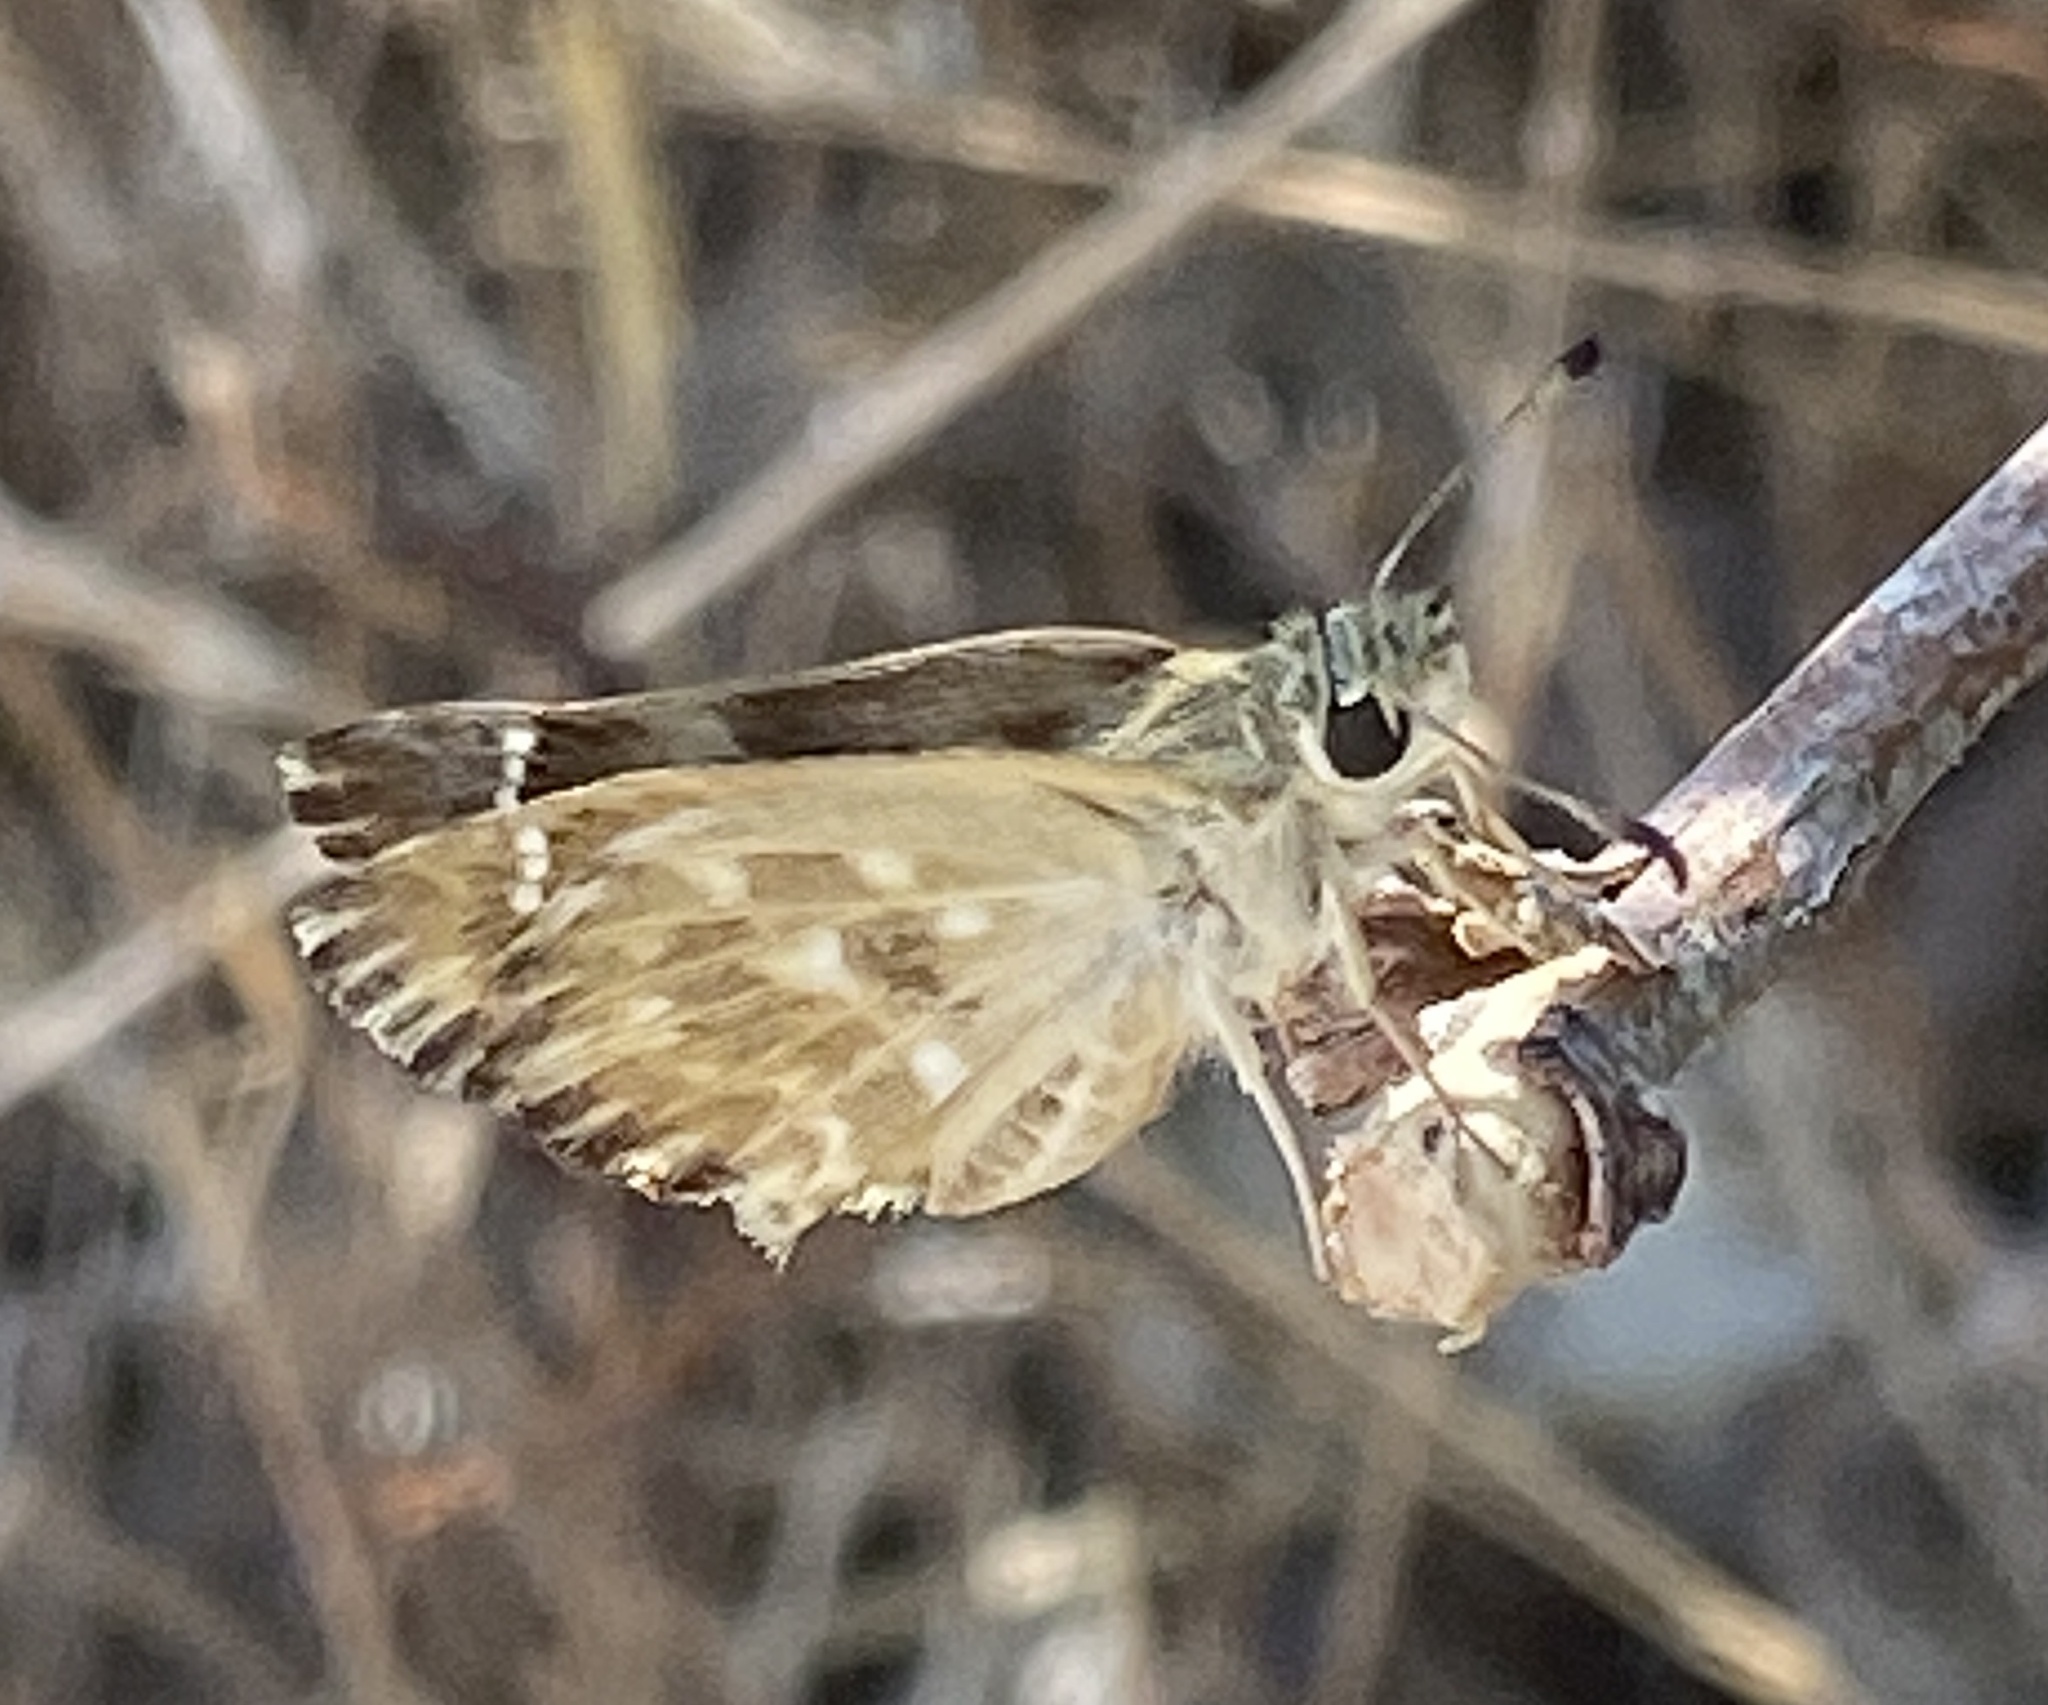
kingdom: Animalia
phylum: Arthropoda
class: Insecta
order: Lepidoptera
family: Hesperiidae
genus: Carcharodus
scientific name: Carcharodus alceae
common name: Mallow skipper
